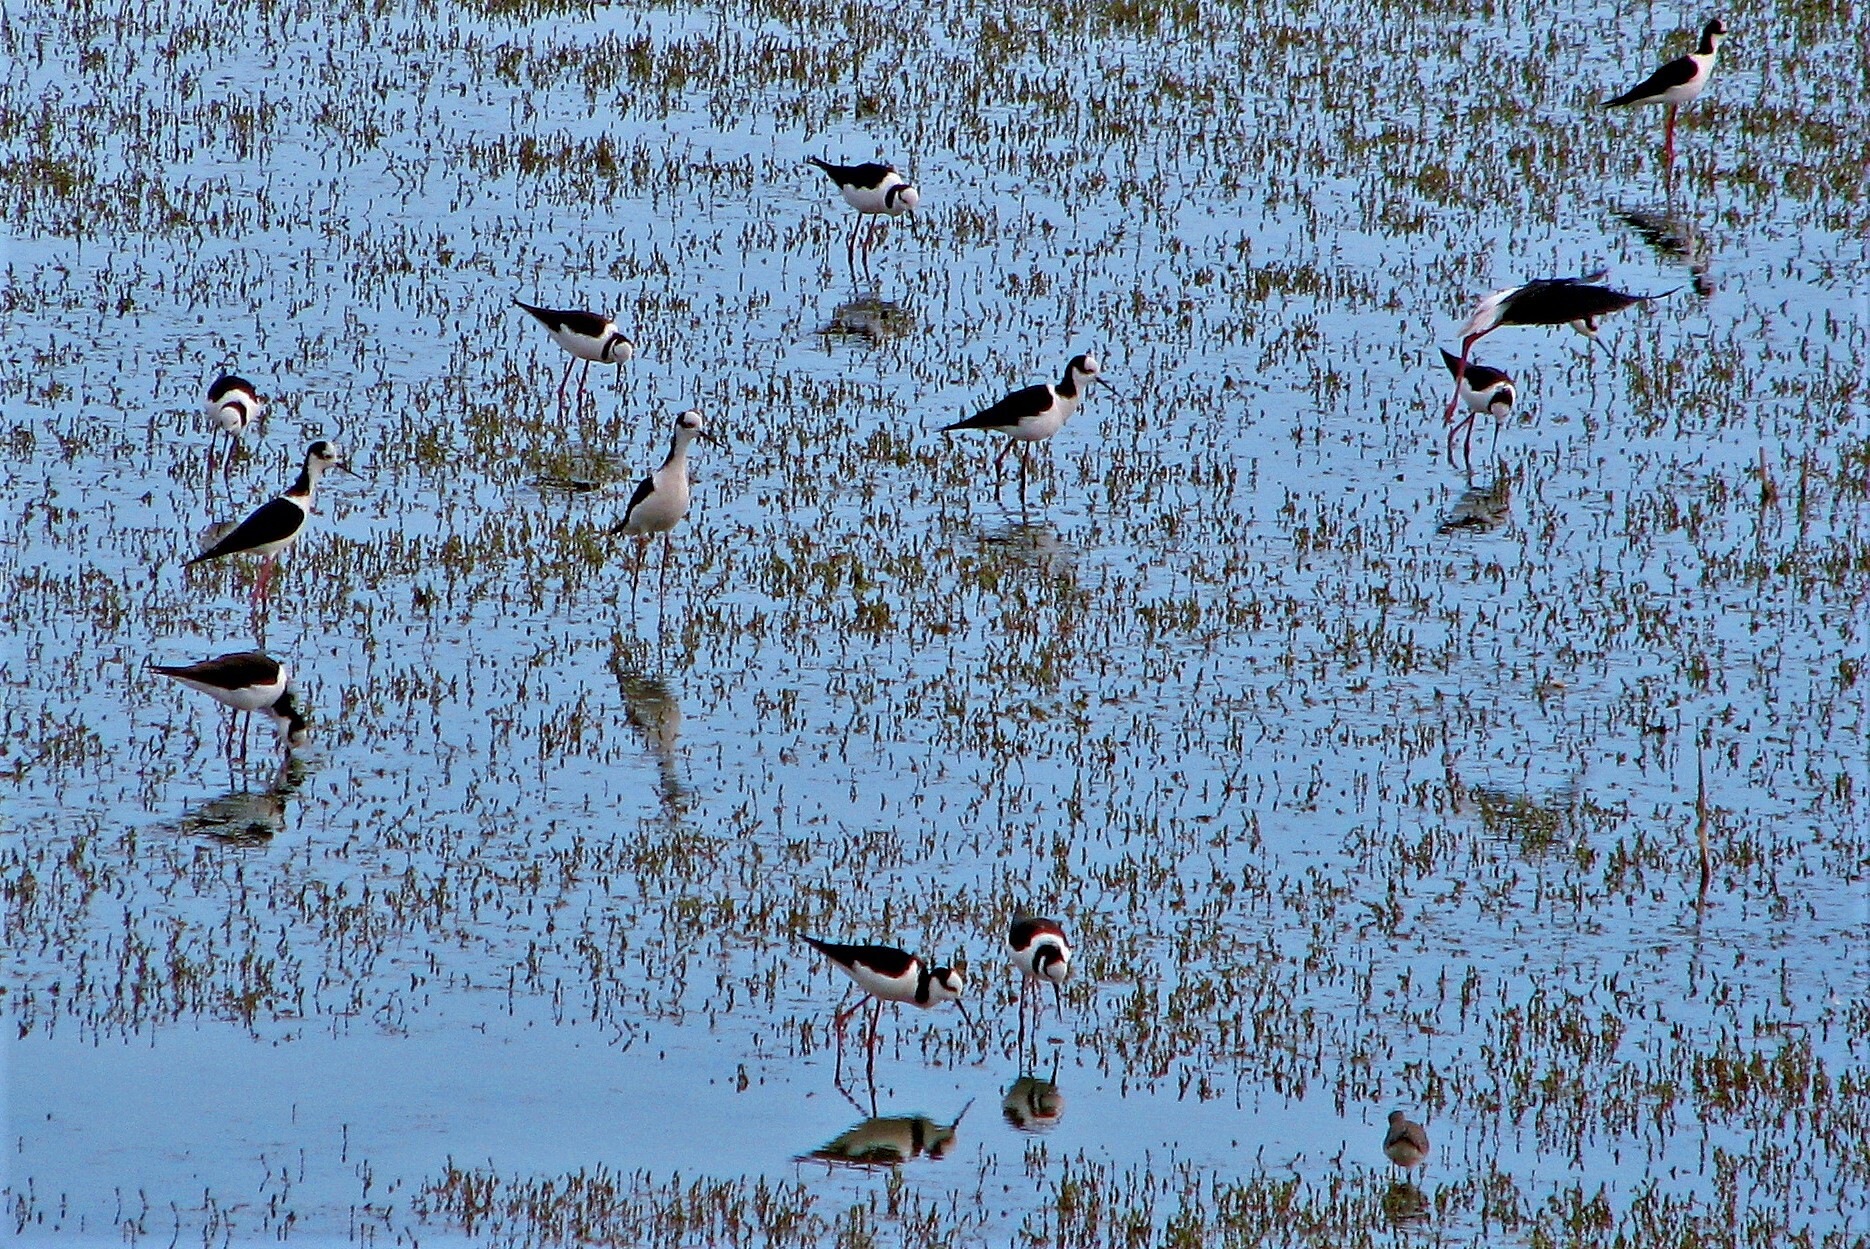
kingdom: Animalia
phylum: Chordata
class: Aves
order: Charadriiformes
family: Recurvirostridae
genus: Himantopus
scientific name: Himantopus mexicanus
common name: Black-necked stilt
